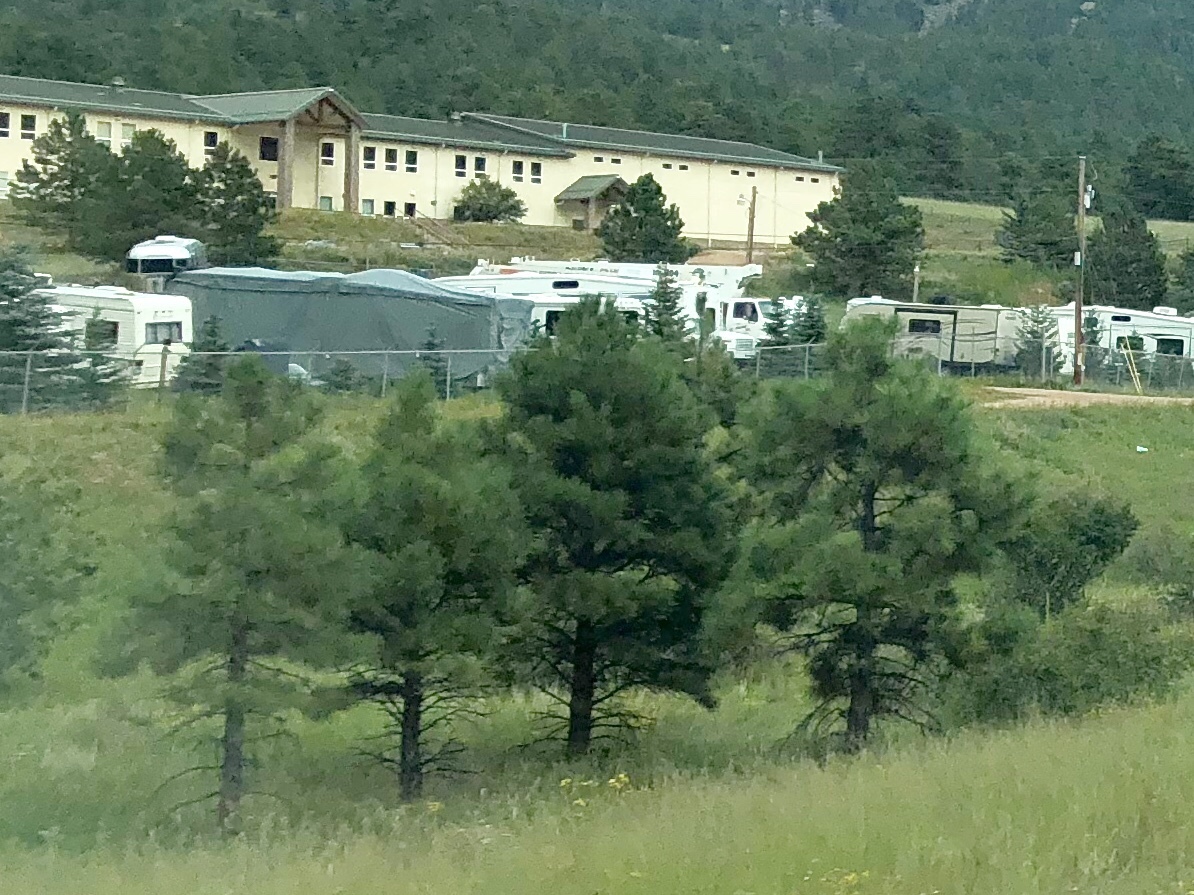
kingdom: Plantae
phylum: Tracheophyta
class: Pinopsida
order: Pinales
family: Pinaceae
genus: Pinus
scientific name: Pinus ponderosa
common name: Western yellow-pine
